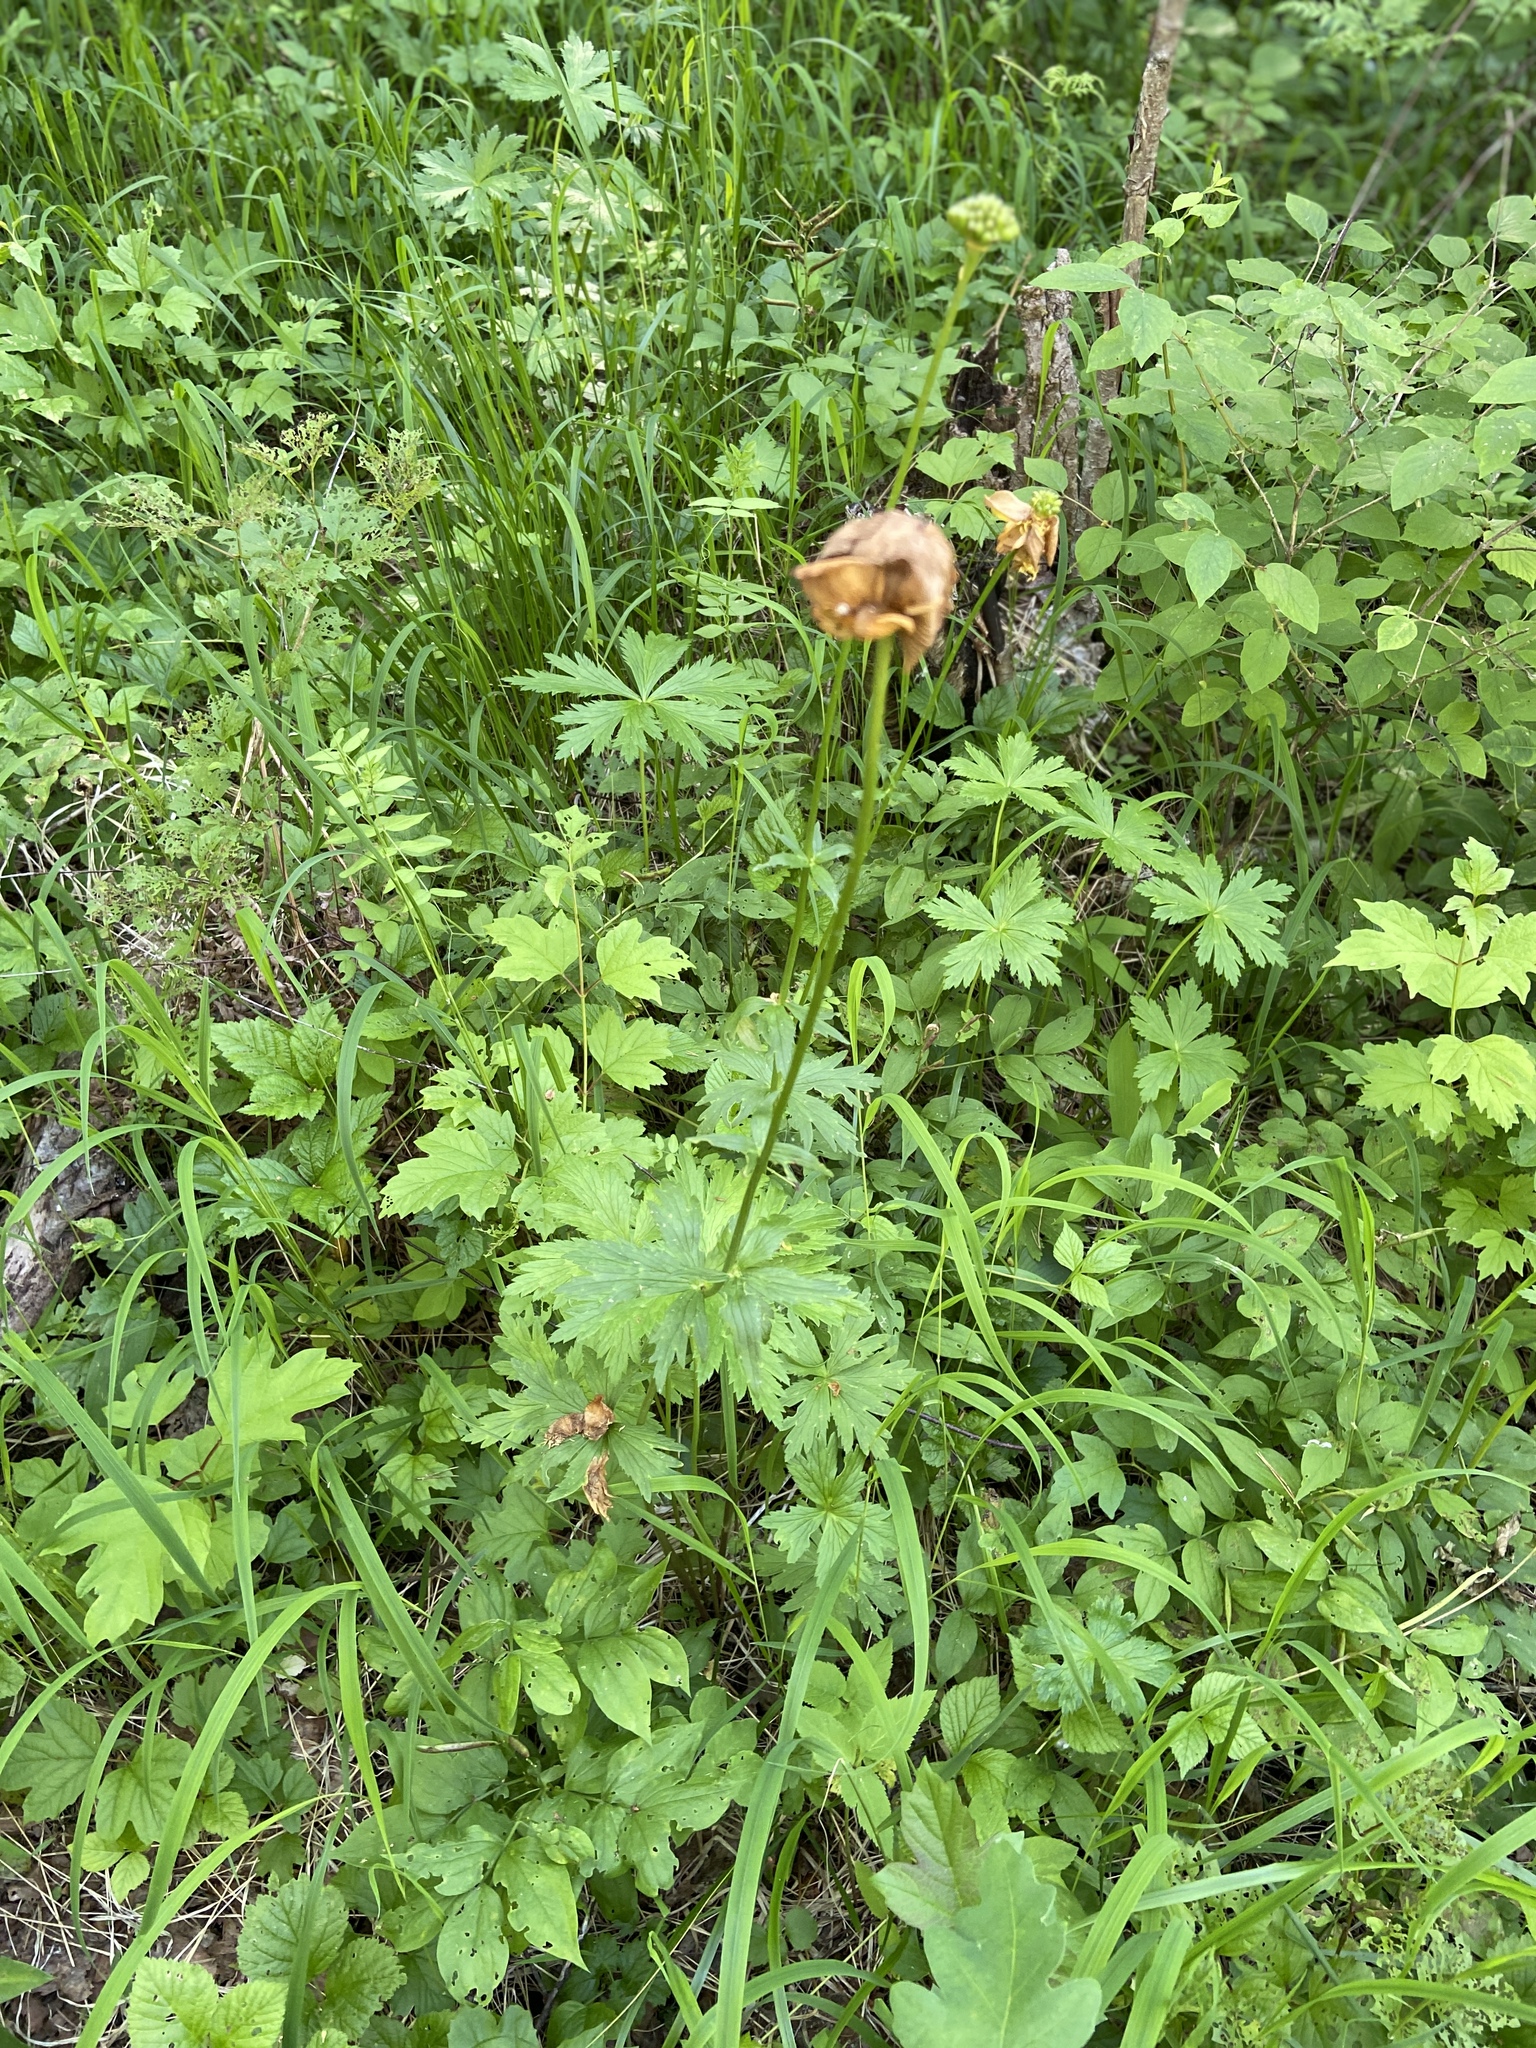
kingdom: Plantae
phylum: Tracheophyta
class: Magnoliopsida
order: Ranunculales
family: Ranunculaceae
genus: Trollius
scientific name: Trollius europaeus
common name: European globeflower
